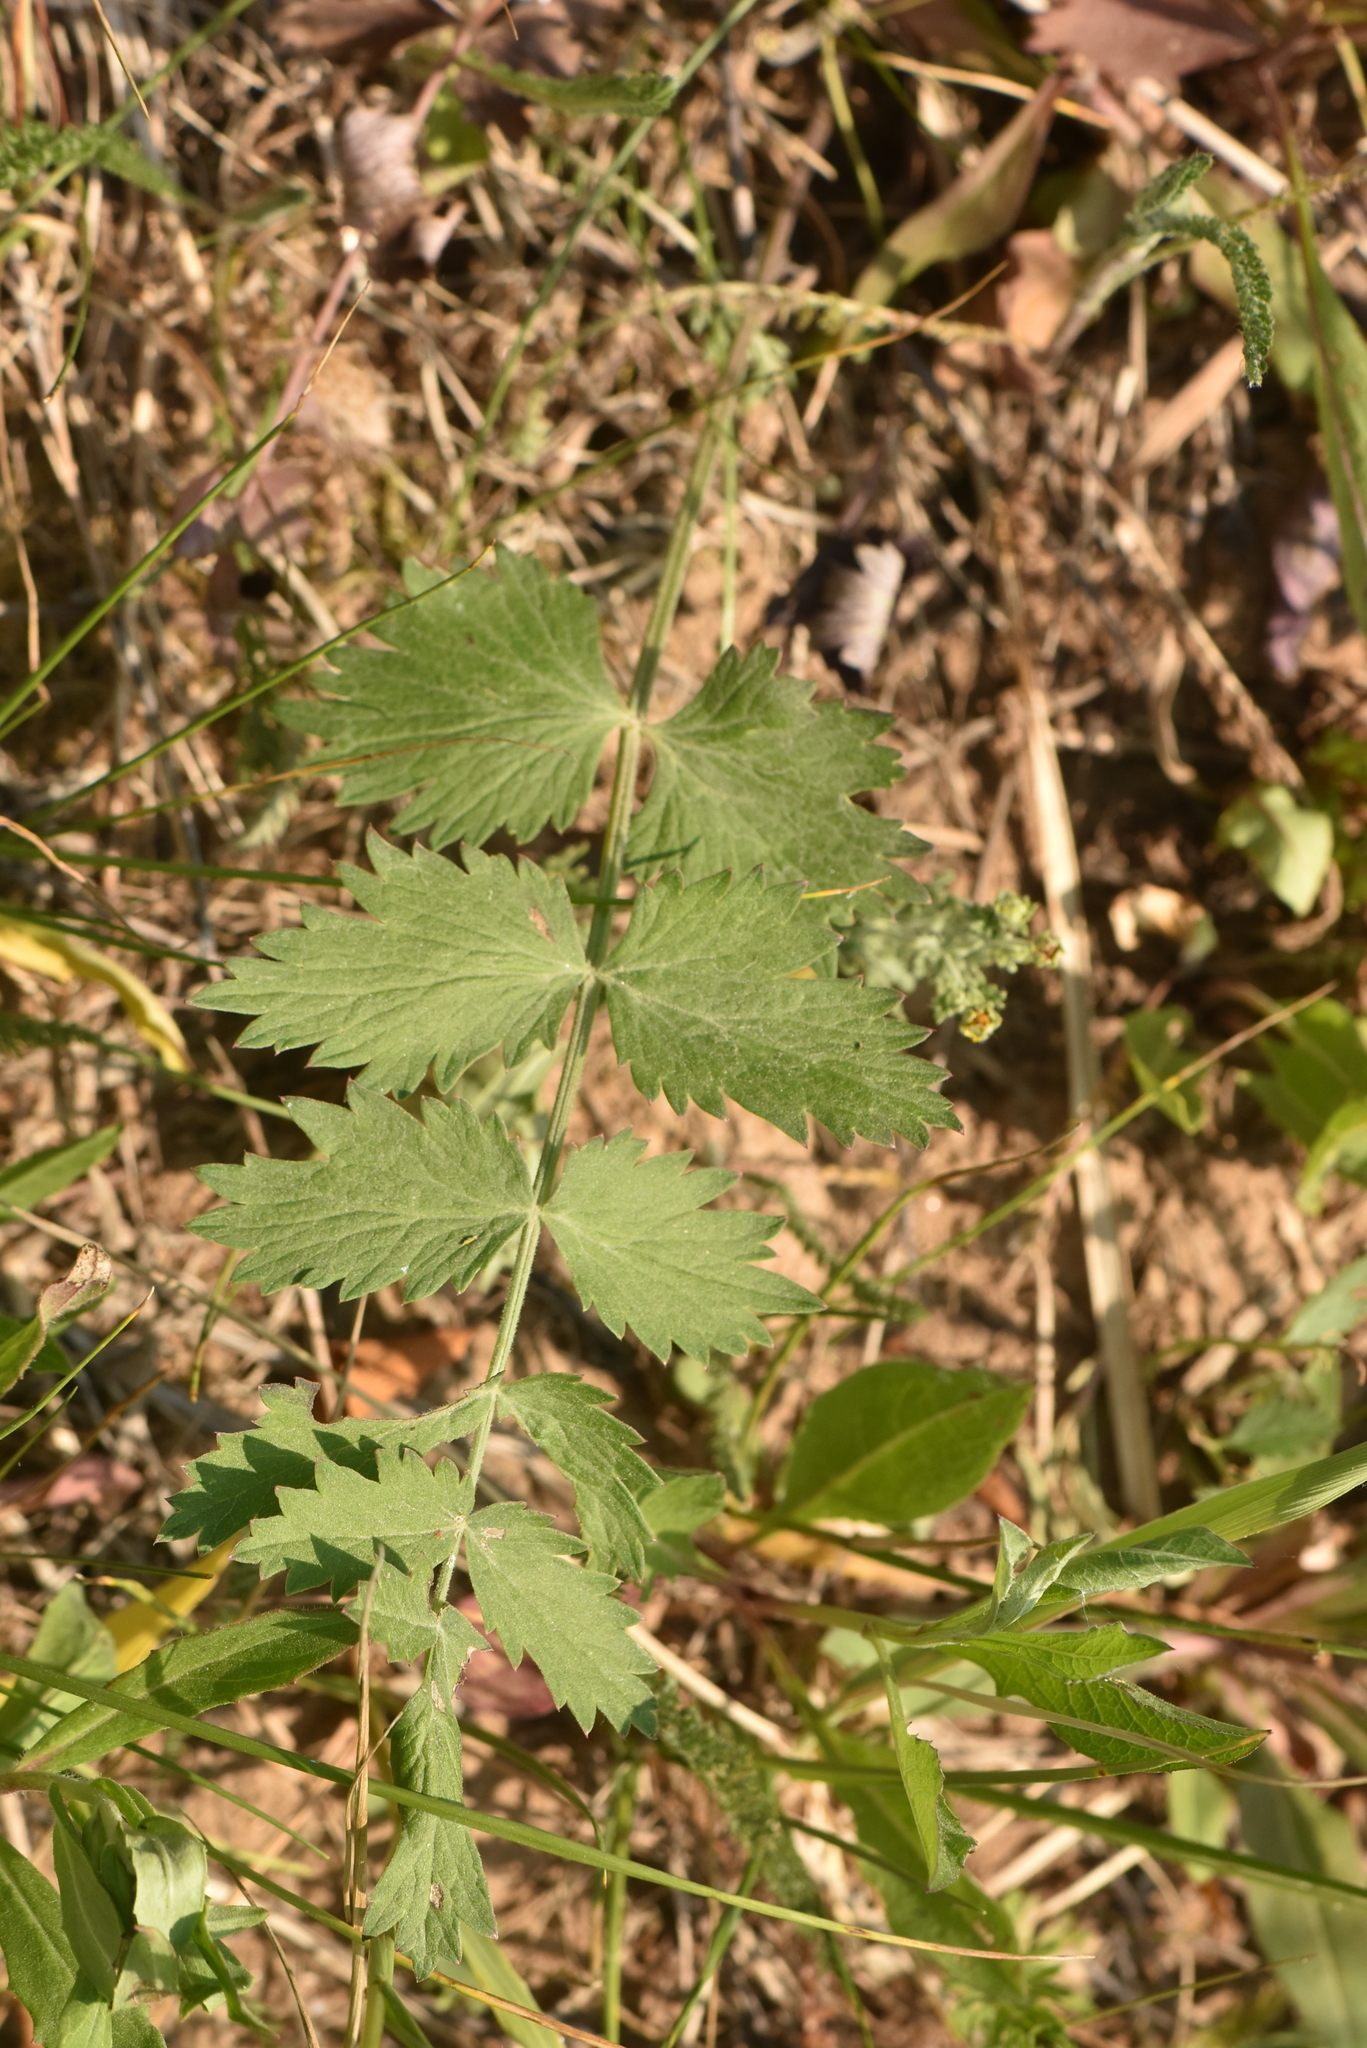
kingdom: Plantae
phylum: Tracheophyta
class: Magnoliopsida
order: Apiales
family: Apiaceae
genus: Pimpinella
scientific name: Pimpinella saxifraga
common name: Burnet-saxifrage
